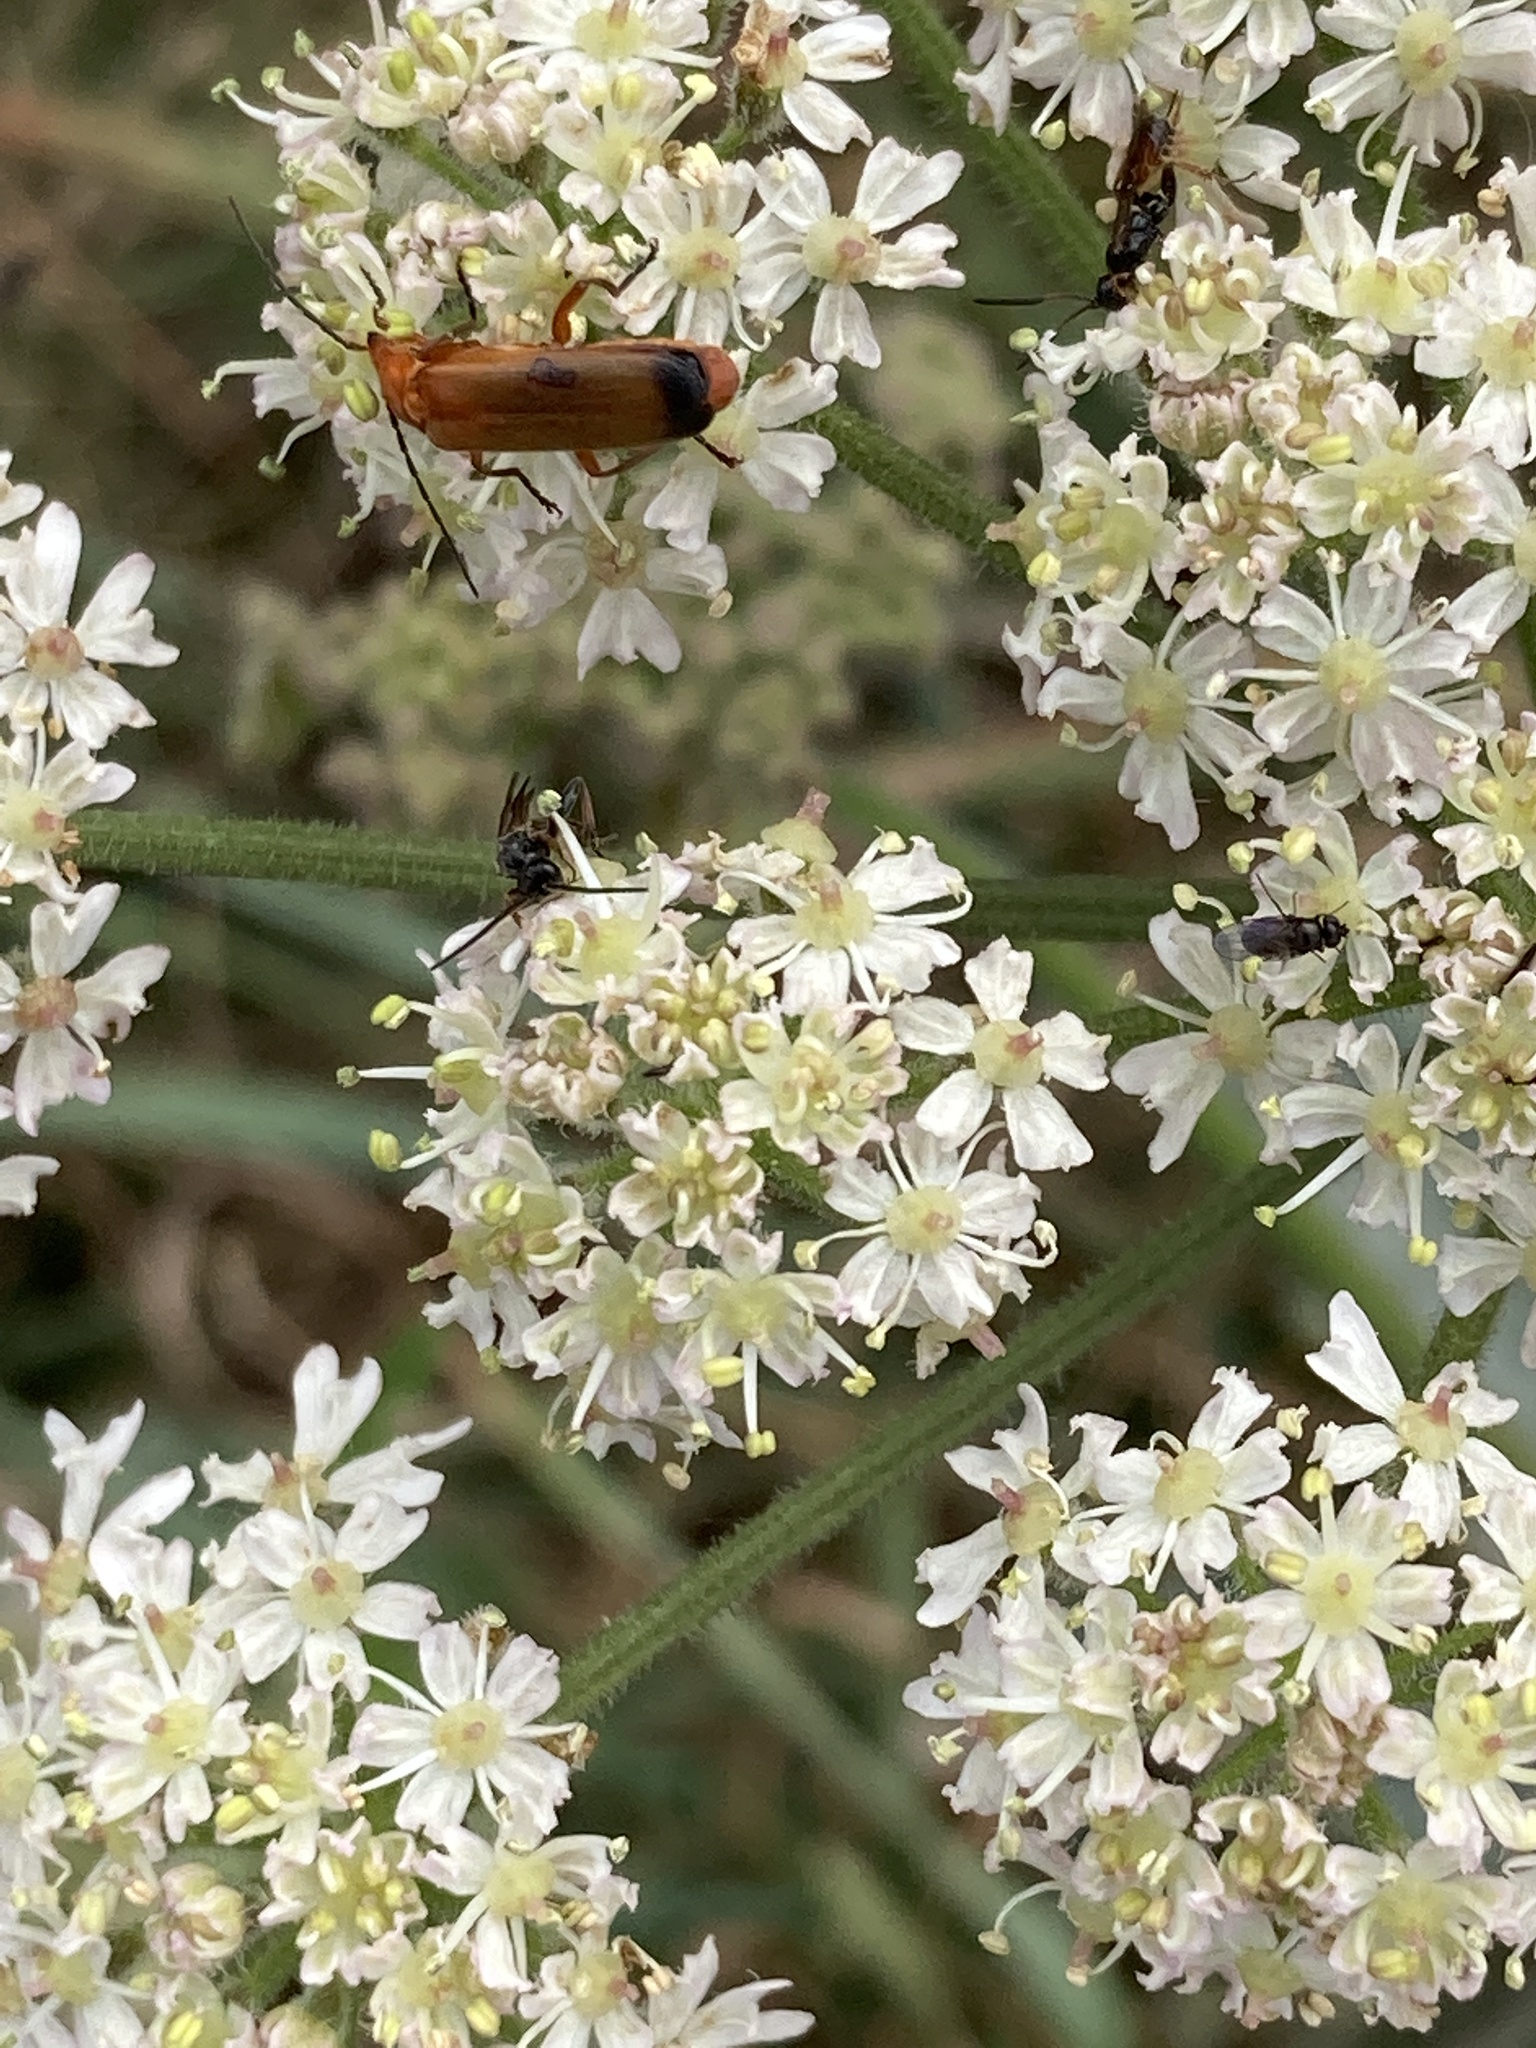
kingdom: Animalia
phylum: Arthropoda
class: Insecta
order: Coleoptera
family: Cantharidae
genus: Rhagonycha
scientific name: Rhagonycha fulva
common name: Common red soldier beetle
